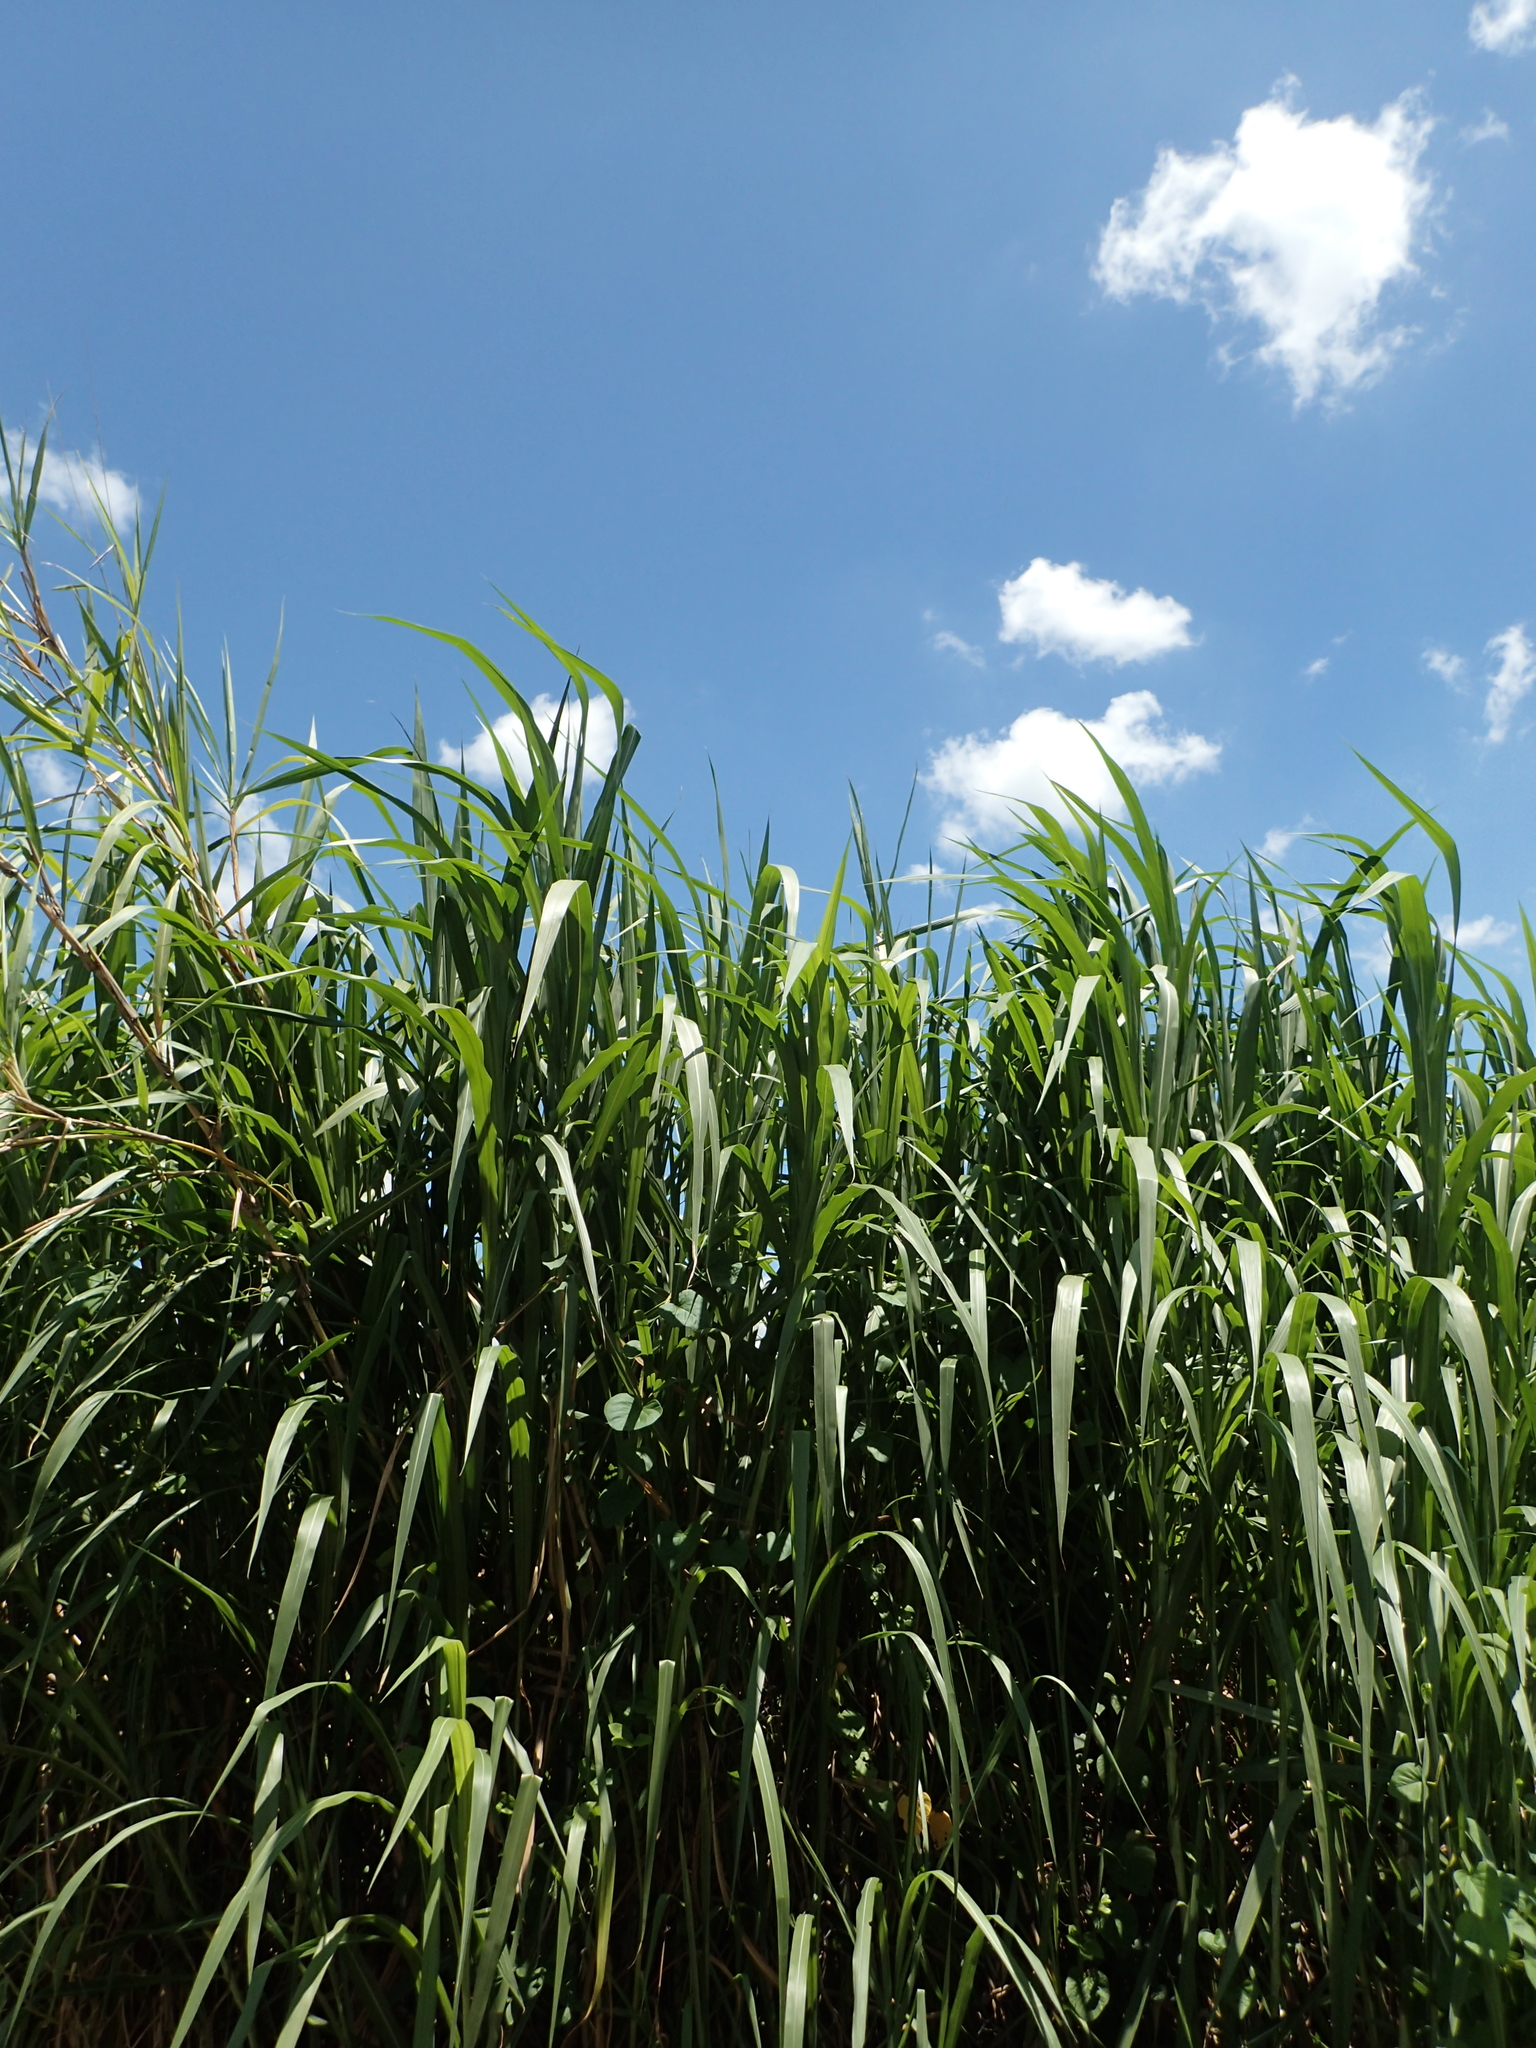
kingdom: Plantae
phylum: Tracheophyta
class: Liliopsida
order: Poales
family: Poaceae
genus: Cenchrus
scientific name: Cenchrus purpureus
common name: Elephant grass
